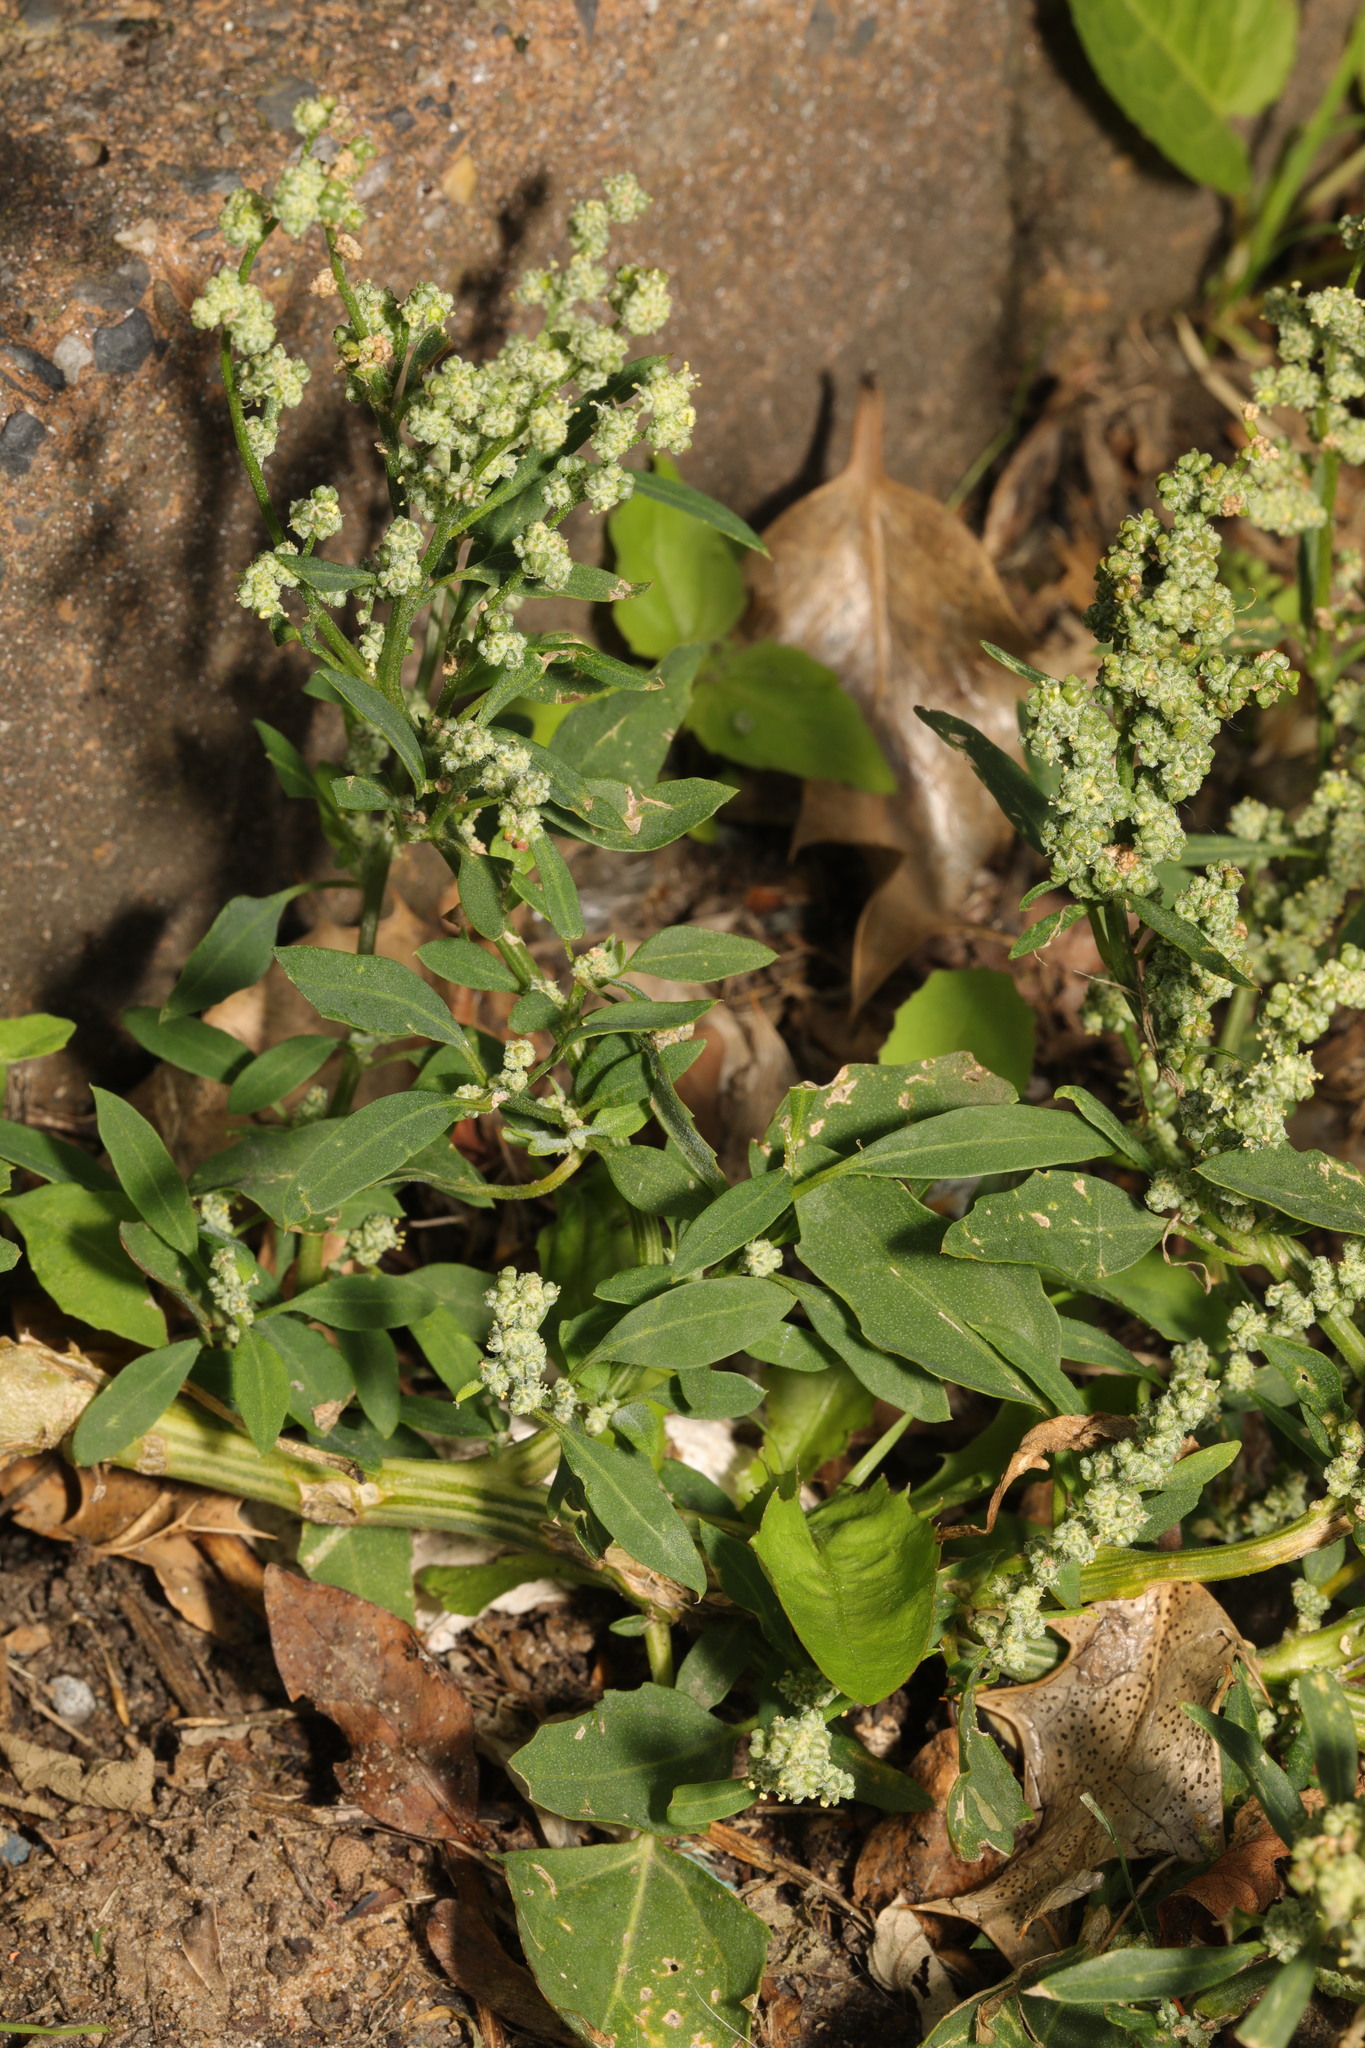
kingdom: Plantae
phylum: Tracheophyta
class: Magnoliopsida
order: Caryophyllales
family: Amaranthaceae
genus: Chenopodium
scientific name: Chenopodium album
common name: Fat-hen
